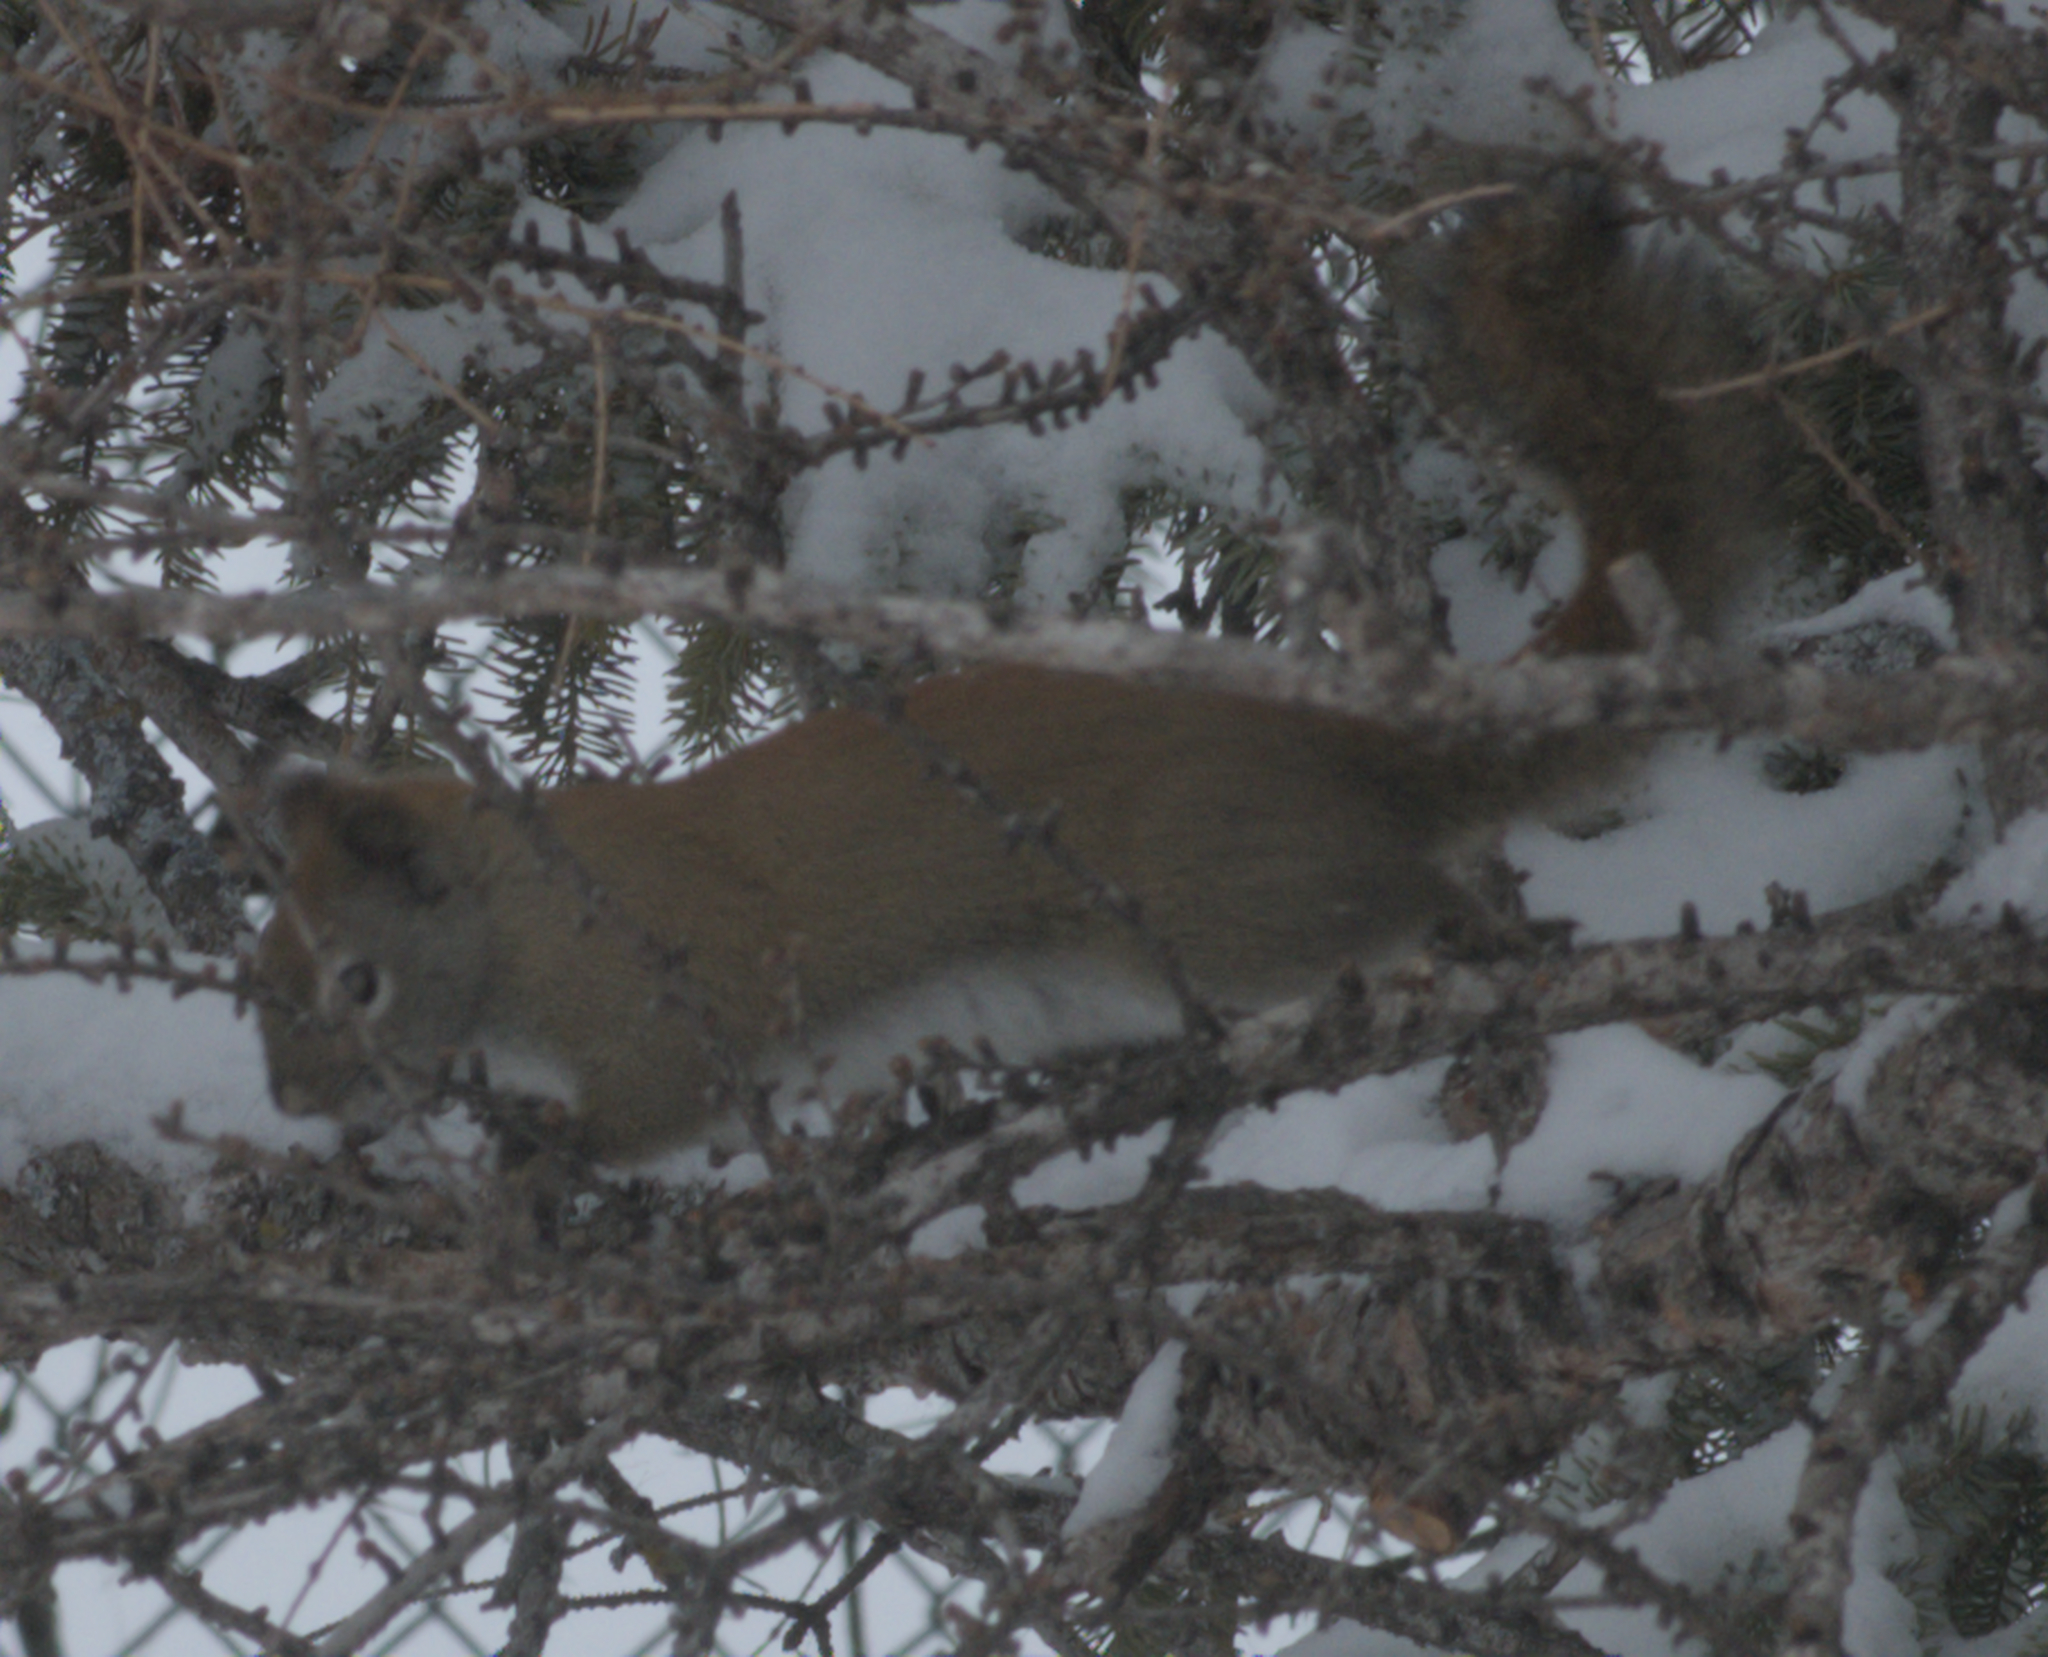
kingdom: Animalia
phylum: Chordata
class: Mammalia
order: Rodentia
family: Sciuridae
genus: Tamiasciurus
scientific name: Tamiasciurus hudsonicus
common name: Red squirrel
